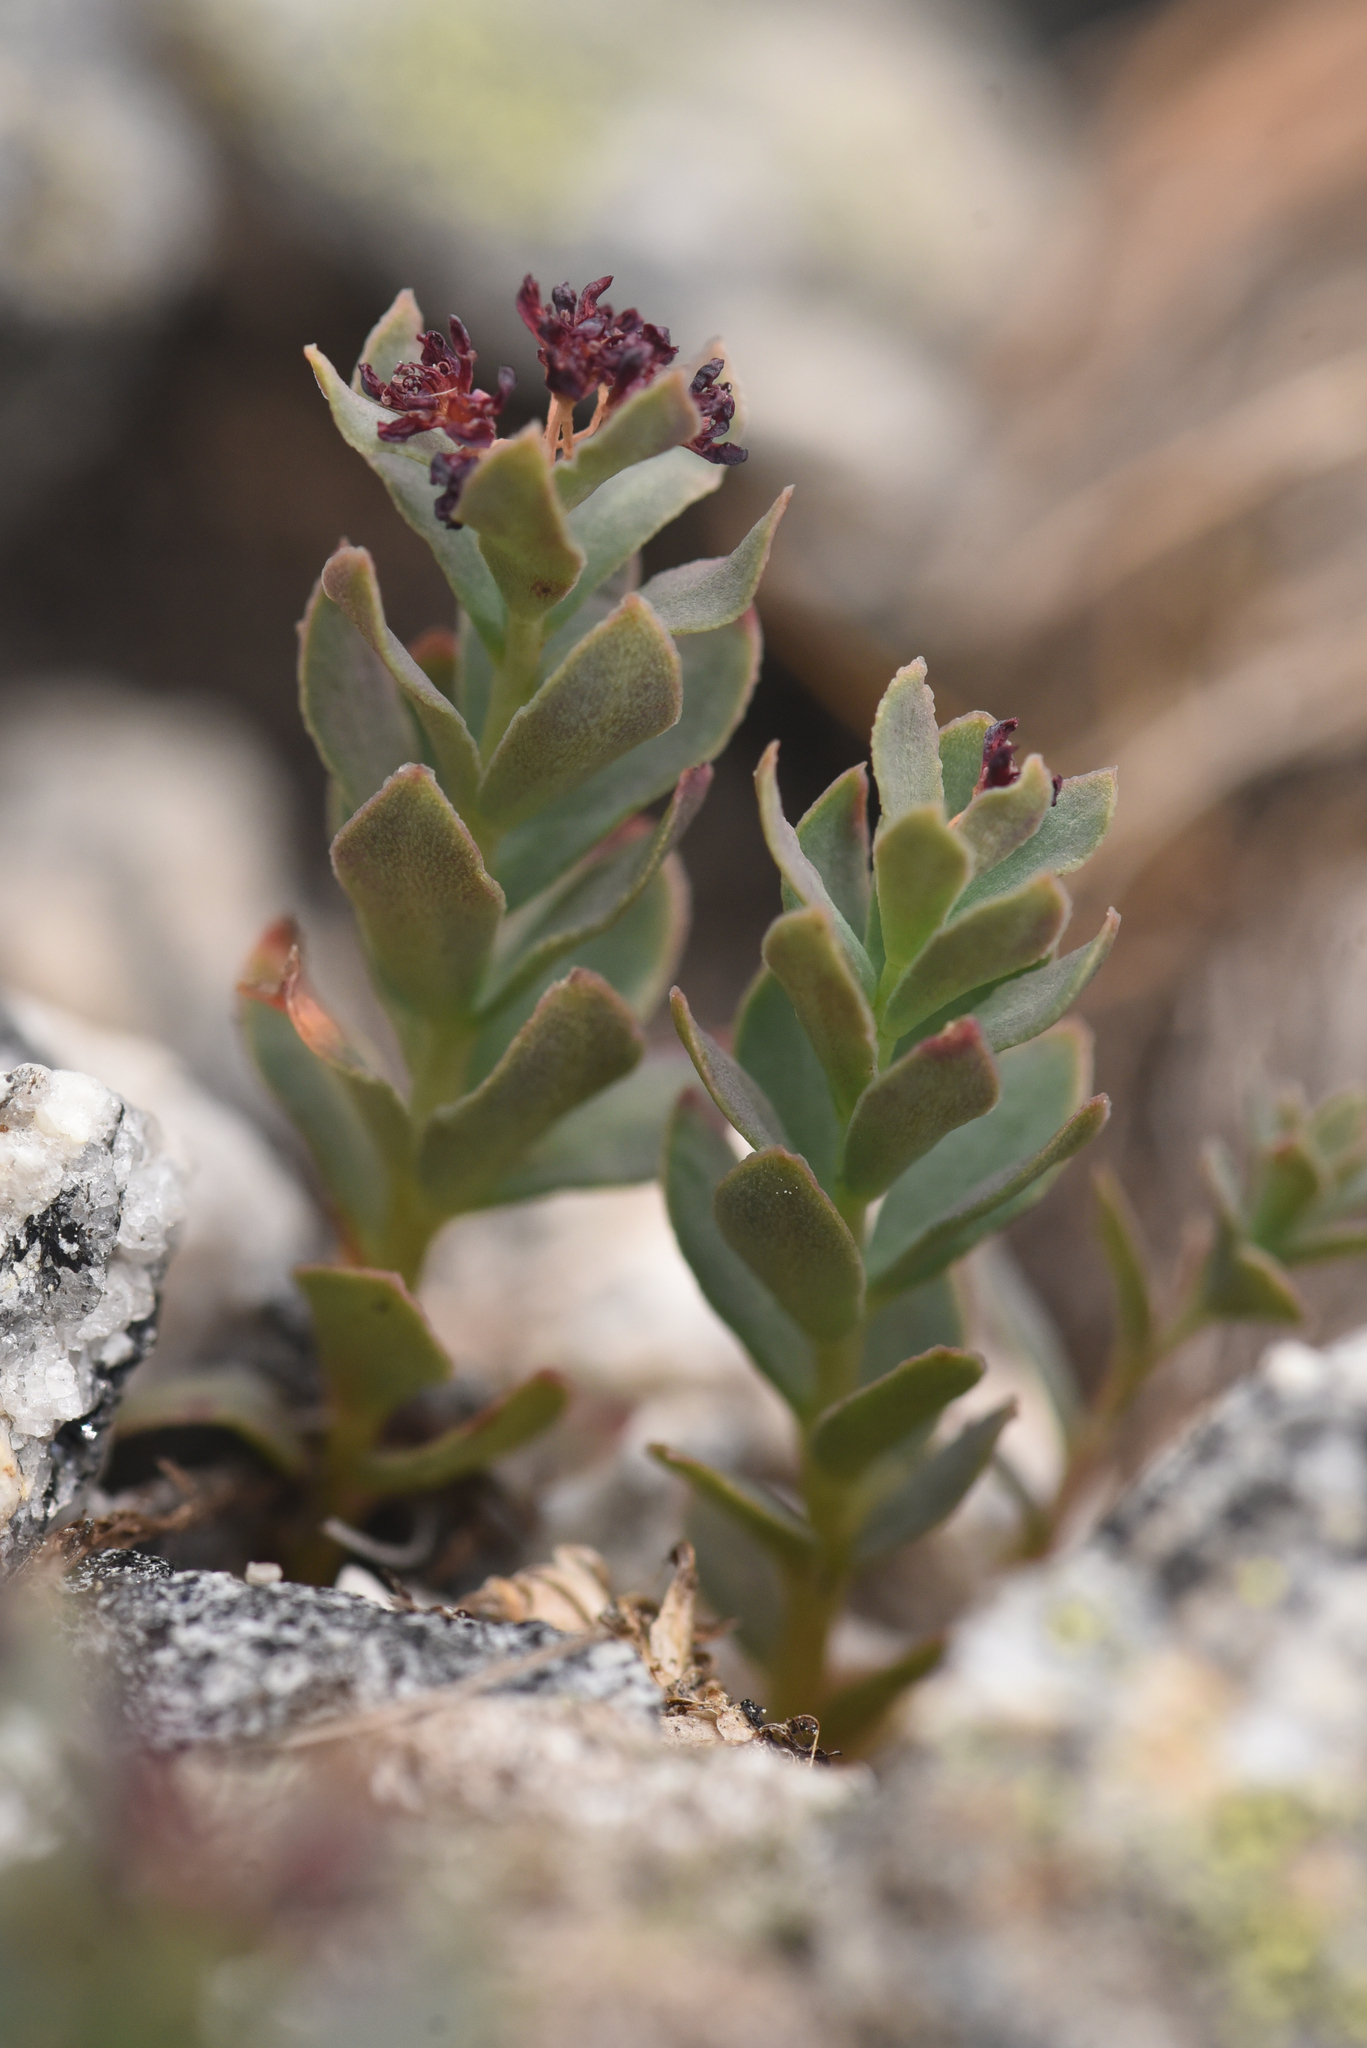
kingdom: Plantae
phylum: Tracheophyta
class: Magnoliopsida
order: Saxifragales
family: Crassulaceae
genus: Rhodiola
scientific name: Rhodiola integrifolia
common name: Western roseroot
